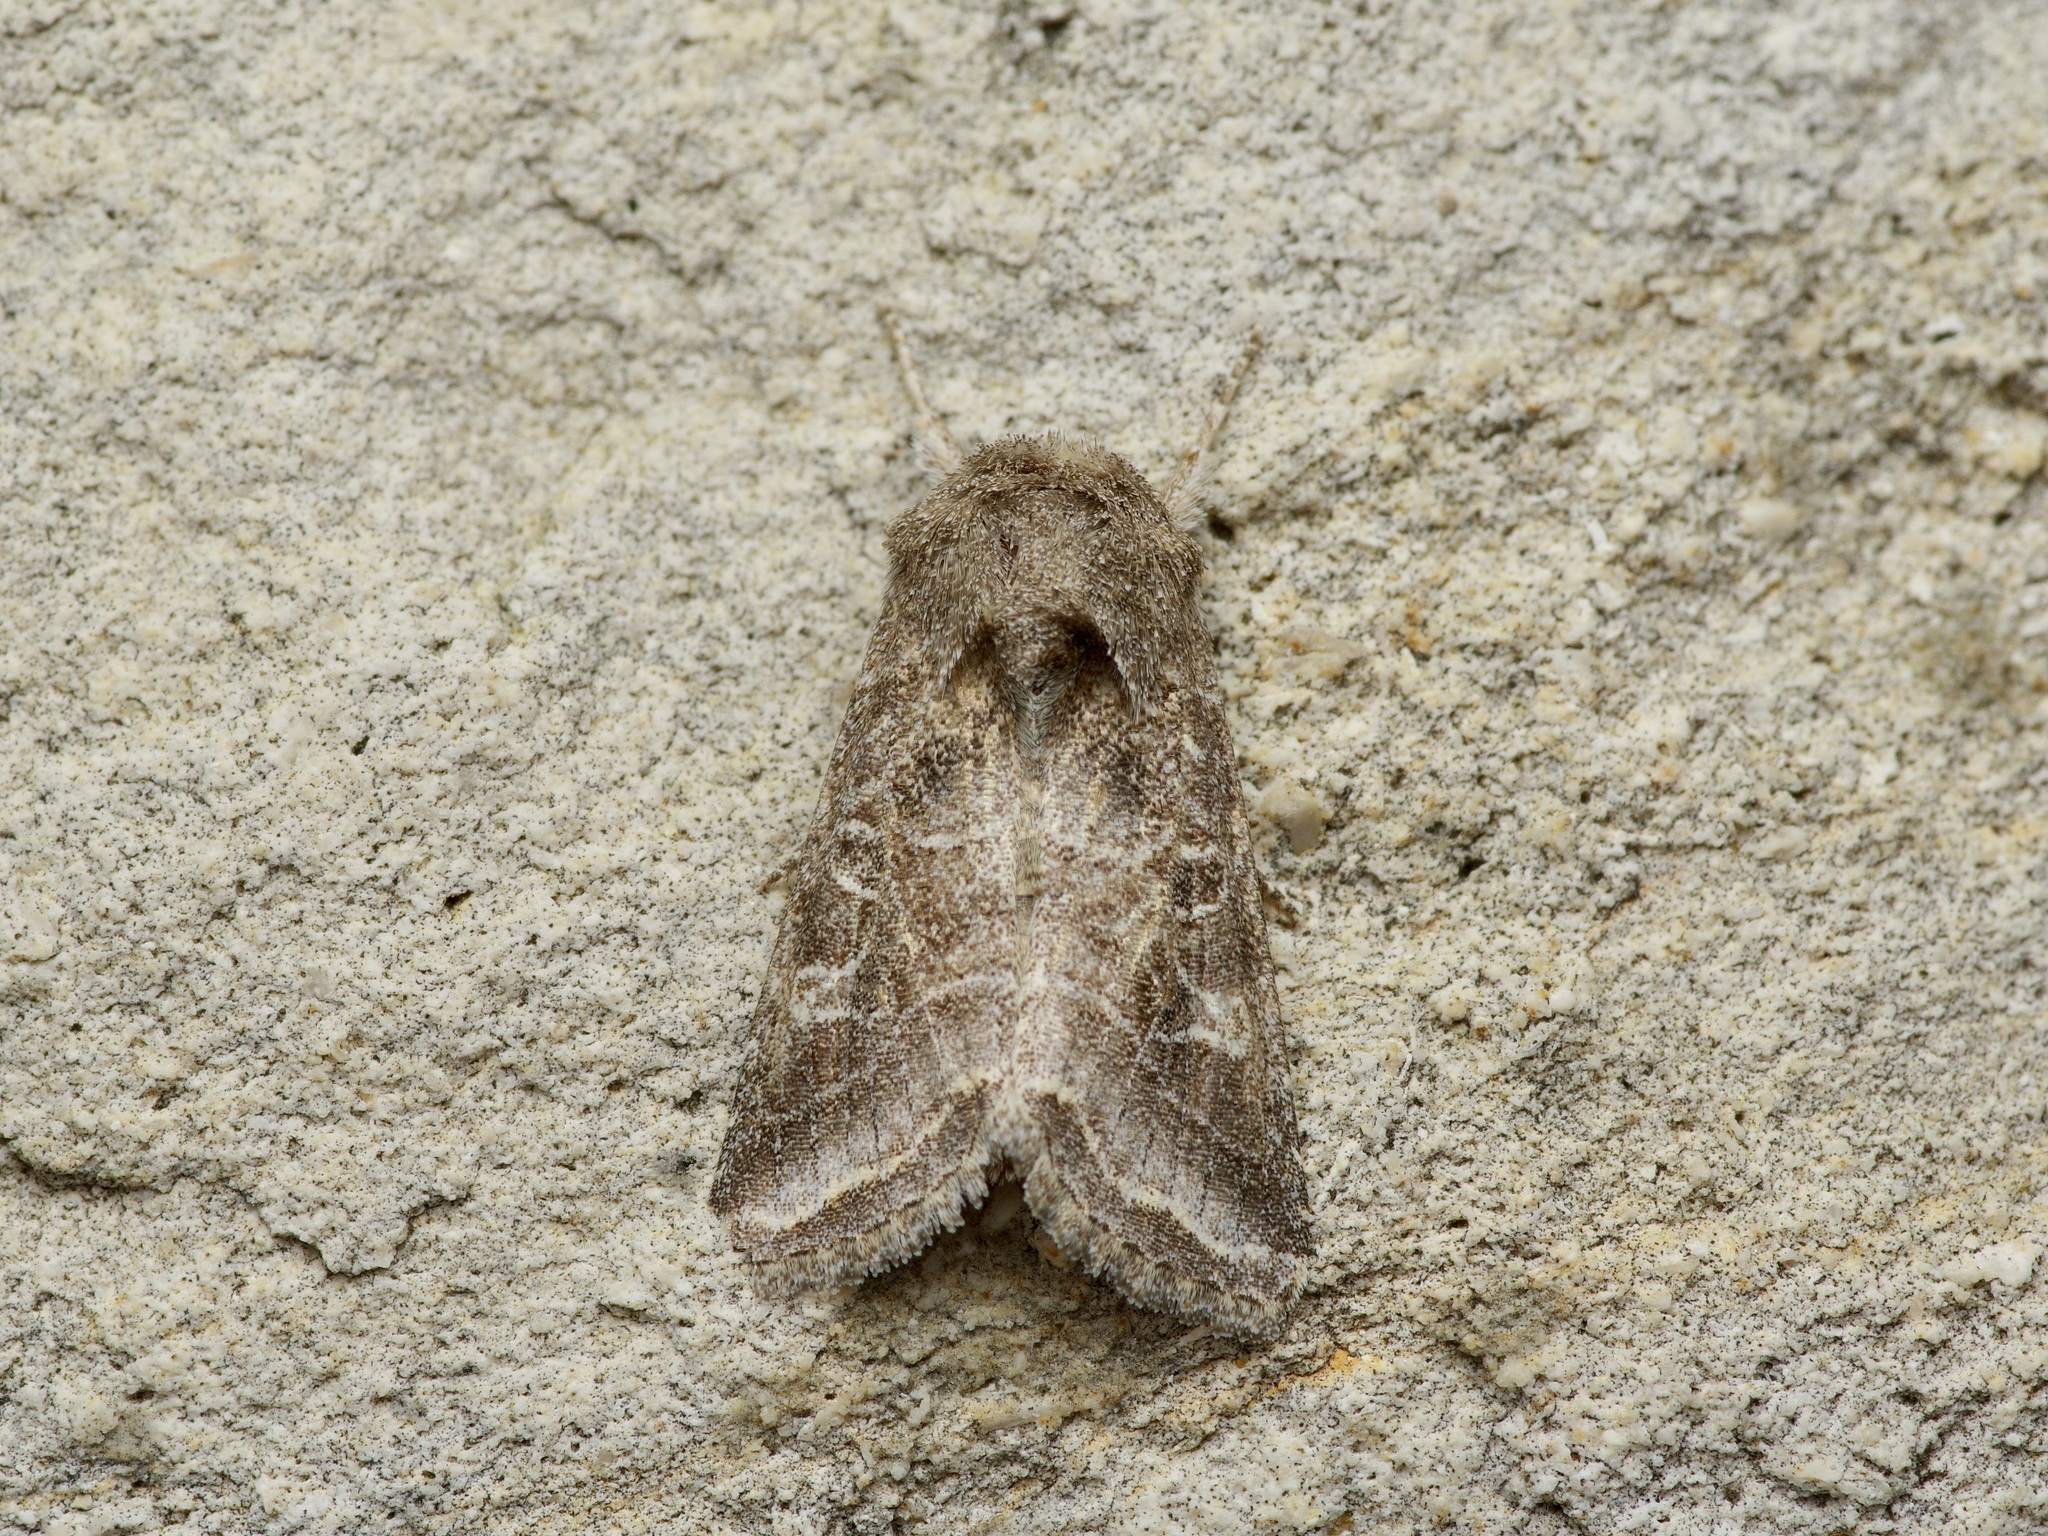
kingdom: Animalia
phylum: Arthropoda
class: Insecta
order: Lepidoptera
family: Noctuidae
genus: Lacinipolia
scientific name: Lacinipolia erecta
